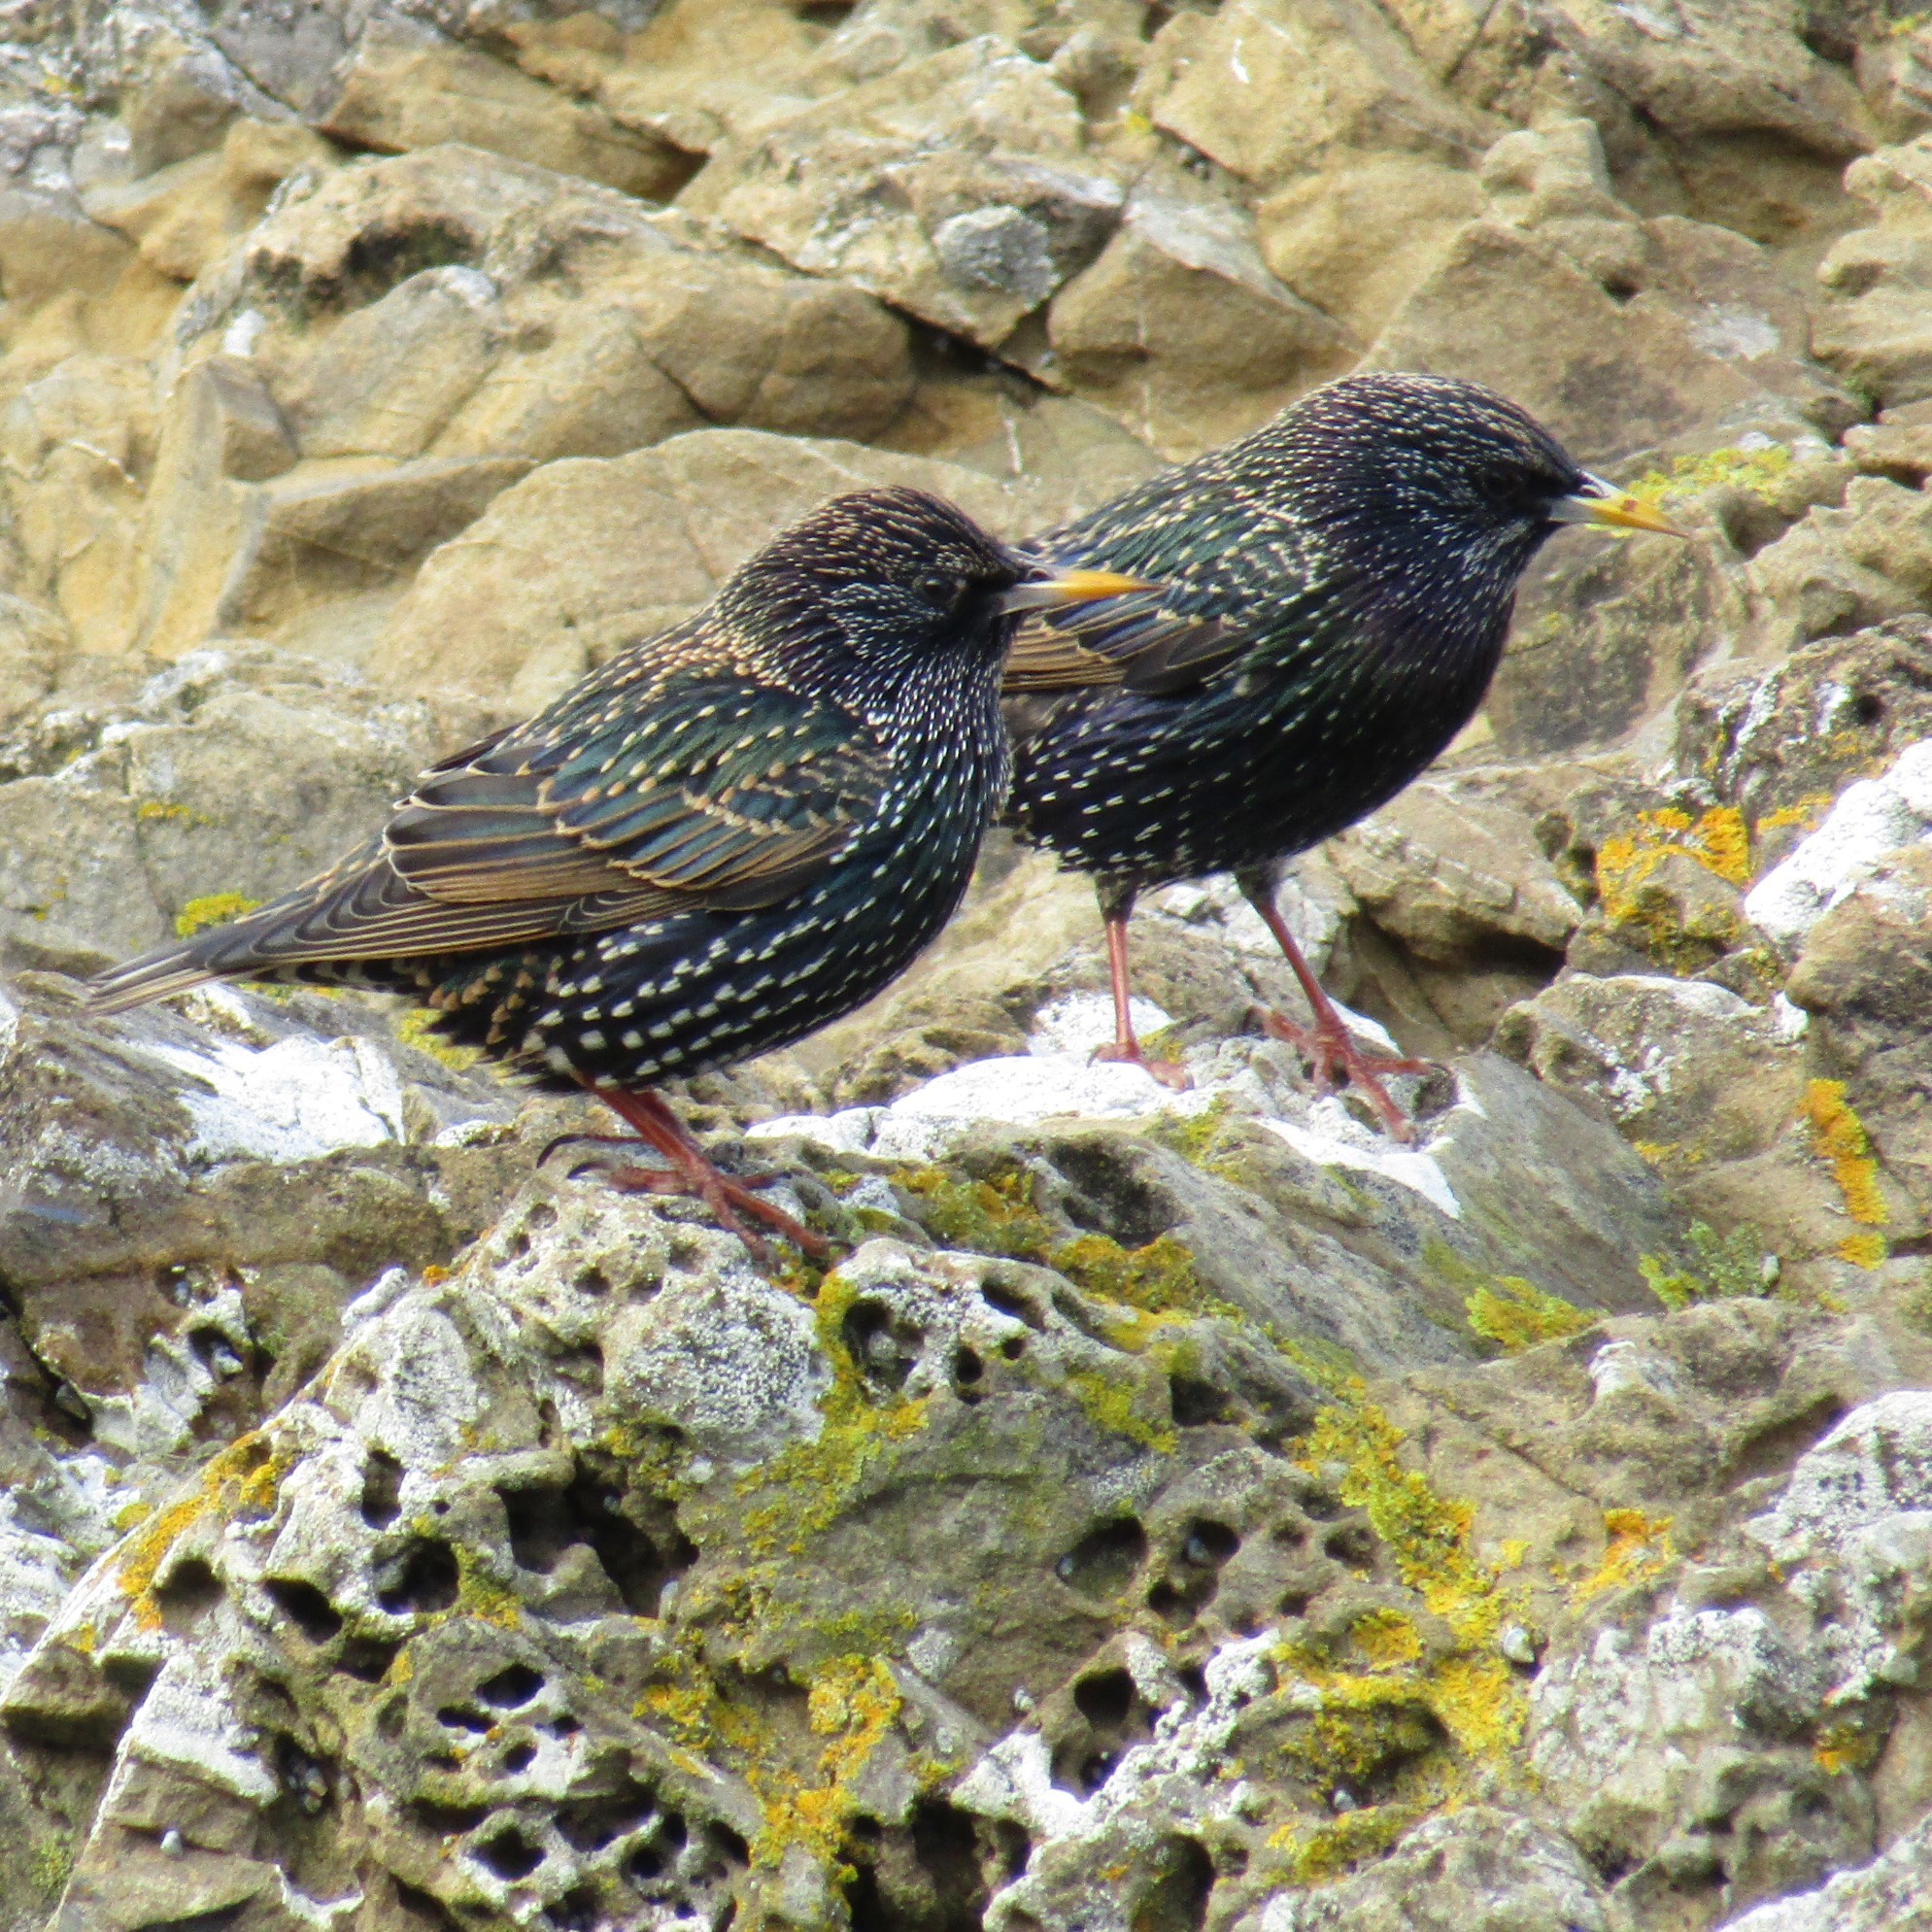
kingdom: Animalia
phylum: Chordata
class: Aves
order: Passeriformes
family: Sturnidae
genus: Sturnus
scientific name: Sturnus vulgaris
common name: Common starling
